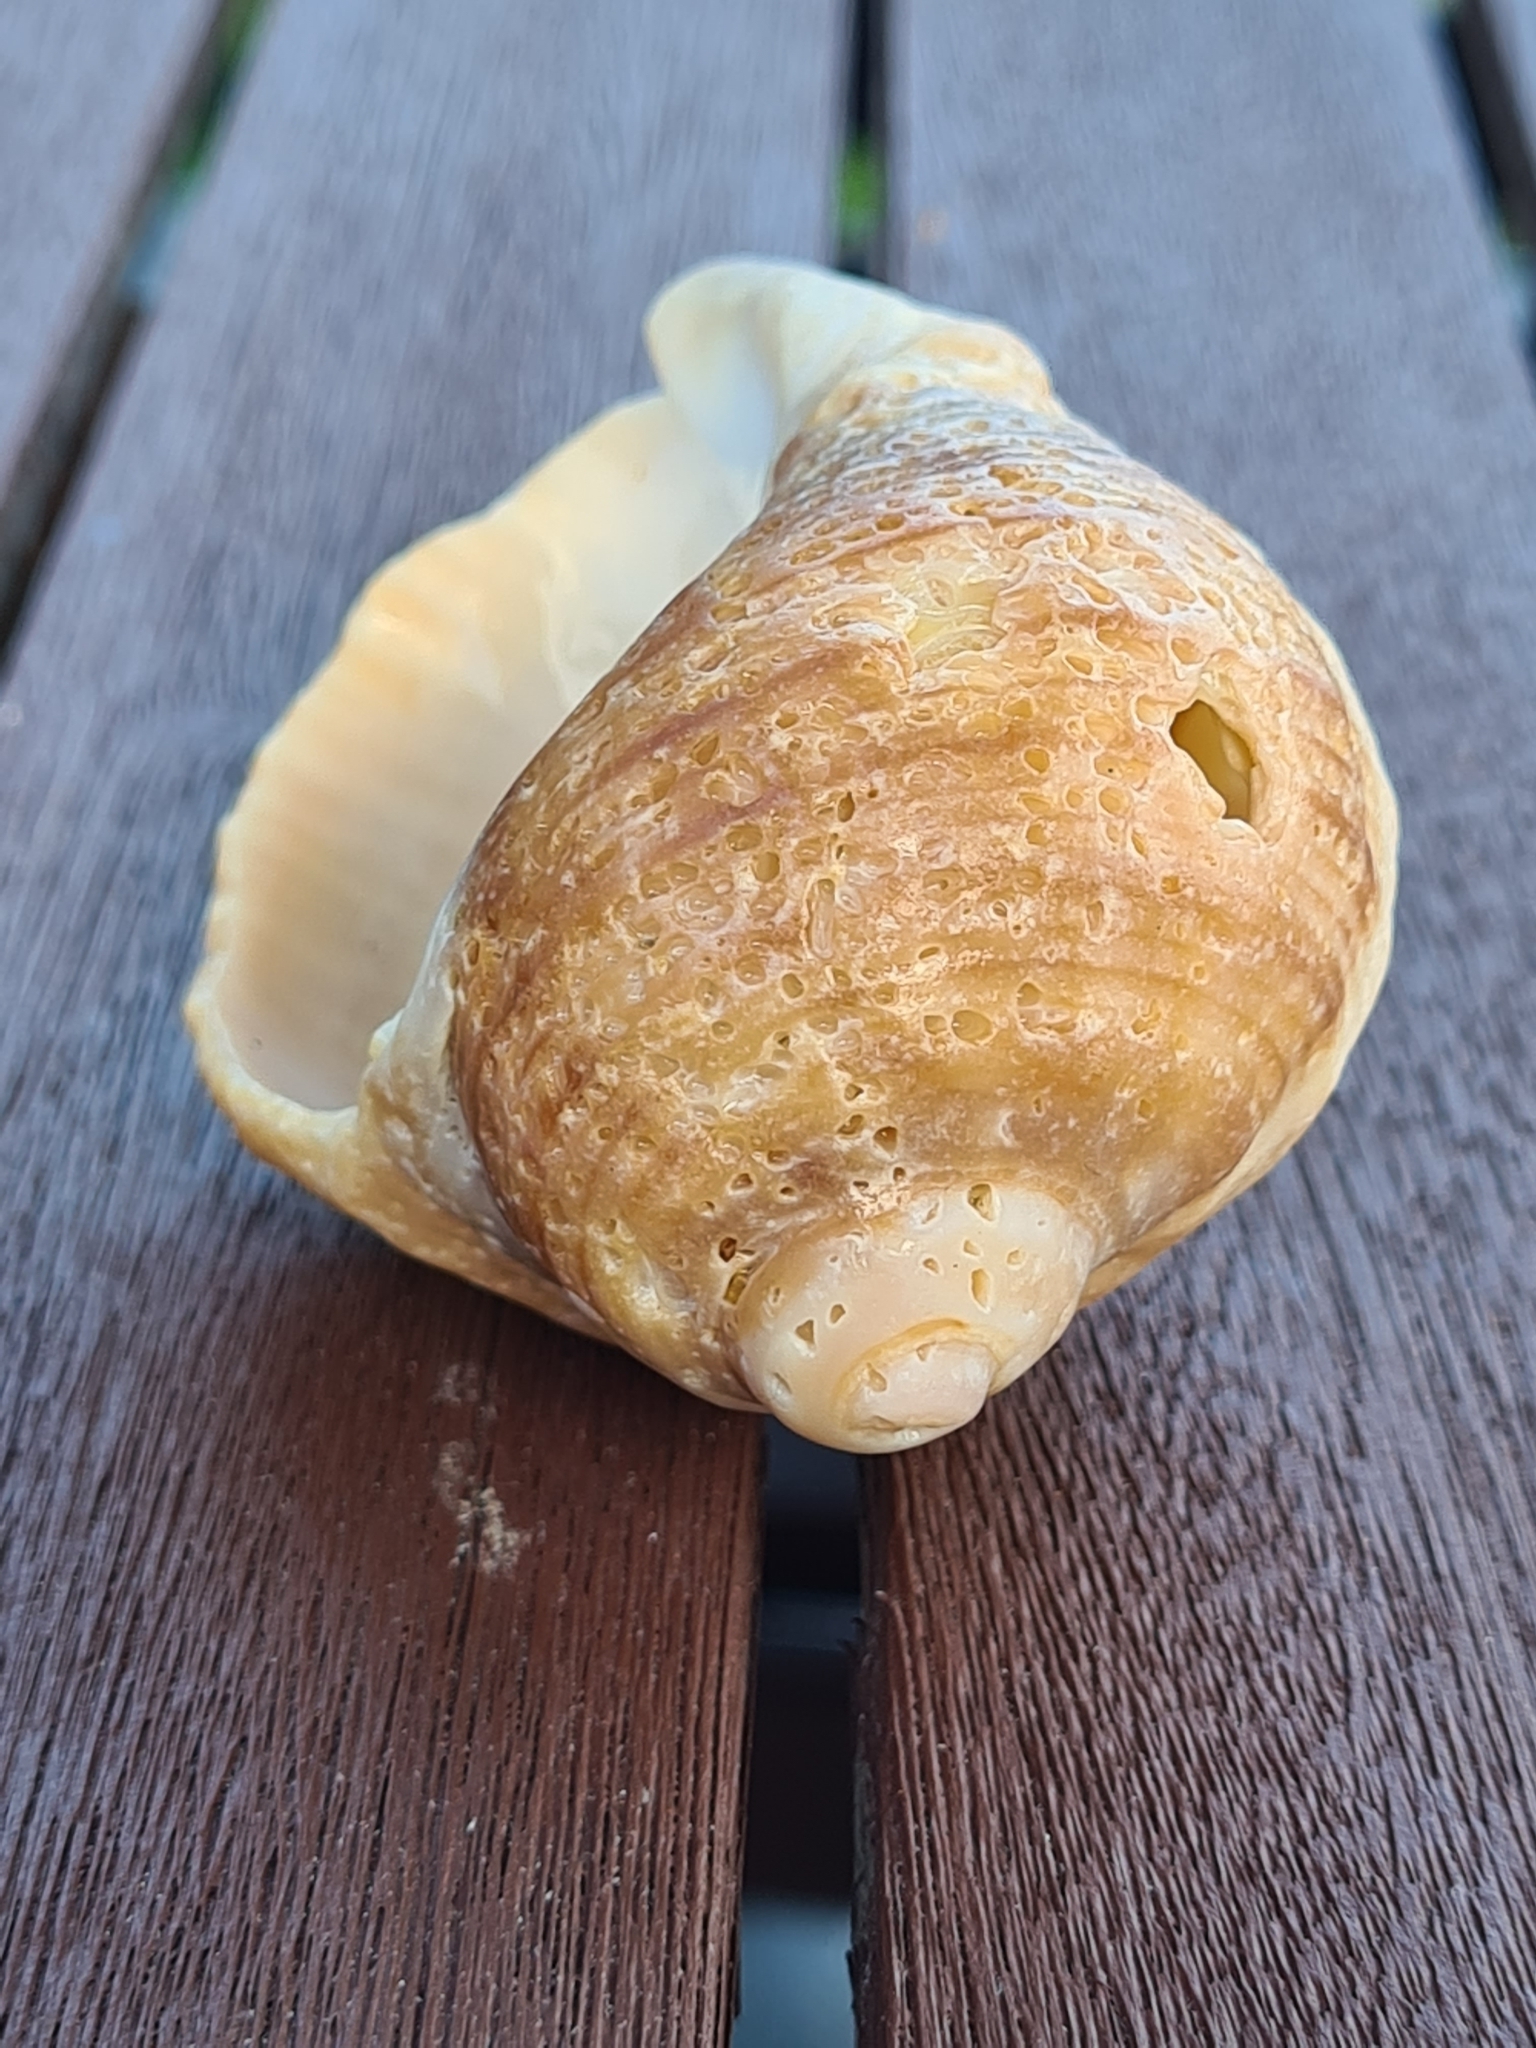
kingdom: Animalia
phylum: Mollusca
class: Gastropoda
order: Neogastropoda
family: Muricidae
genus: Dicathais
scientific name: Dicathais orbita
